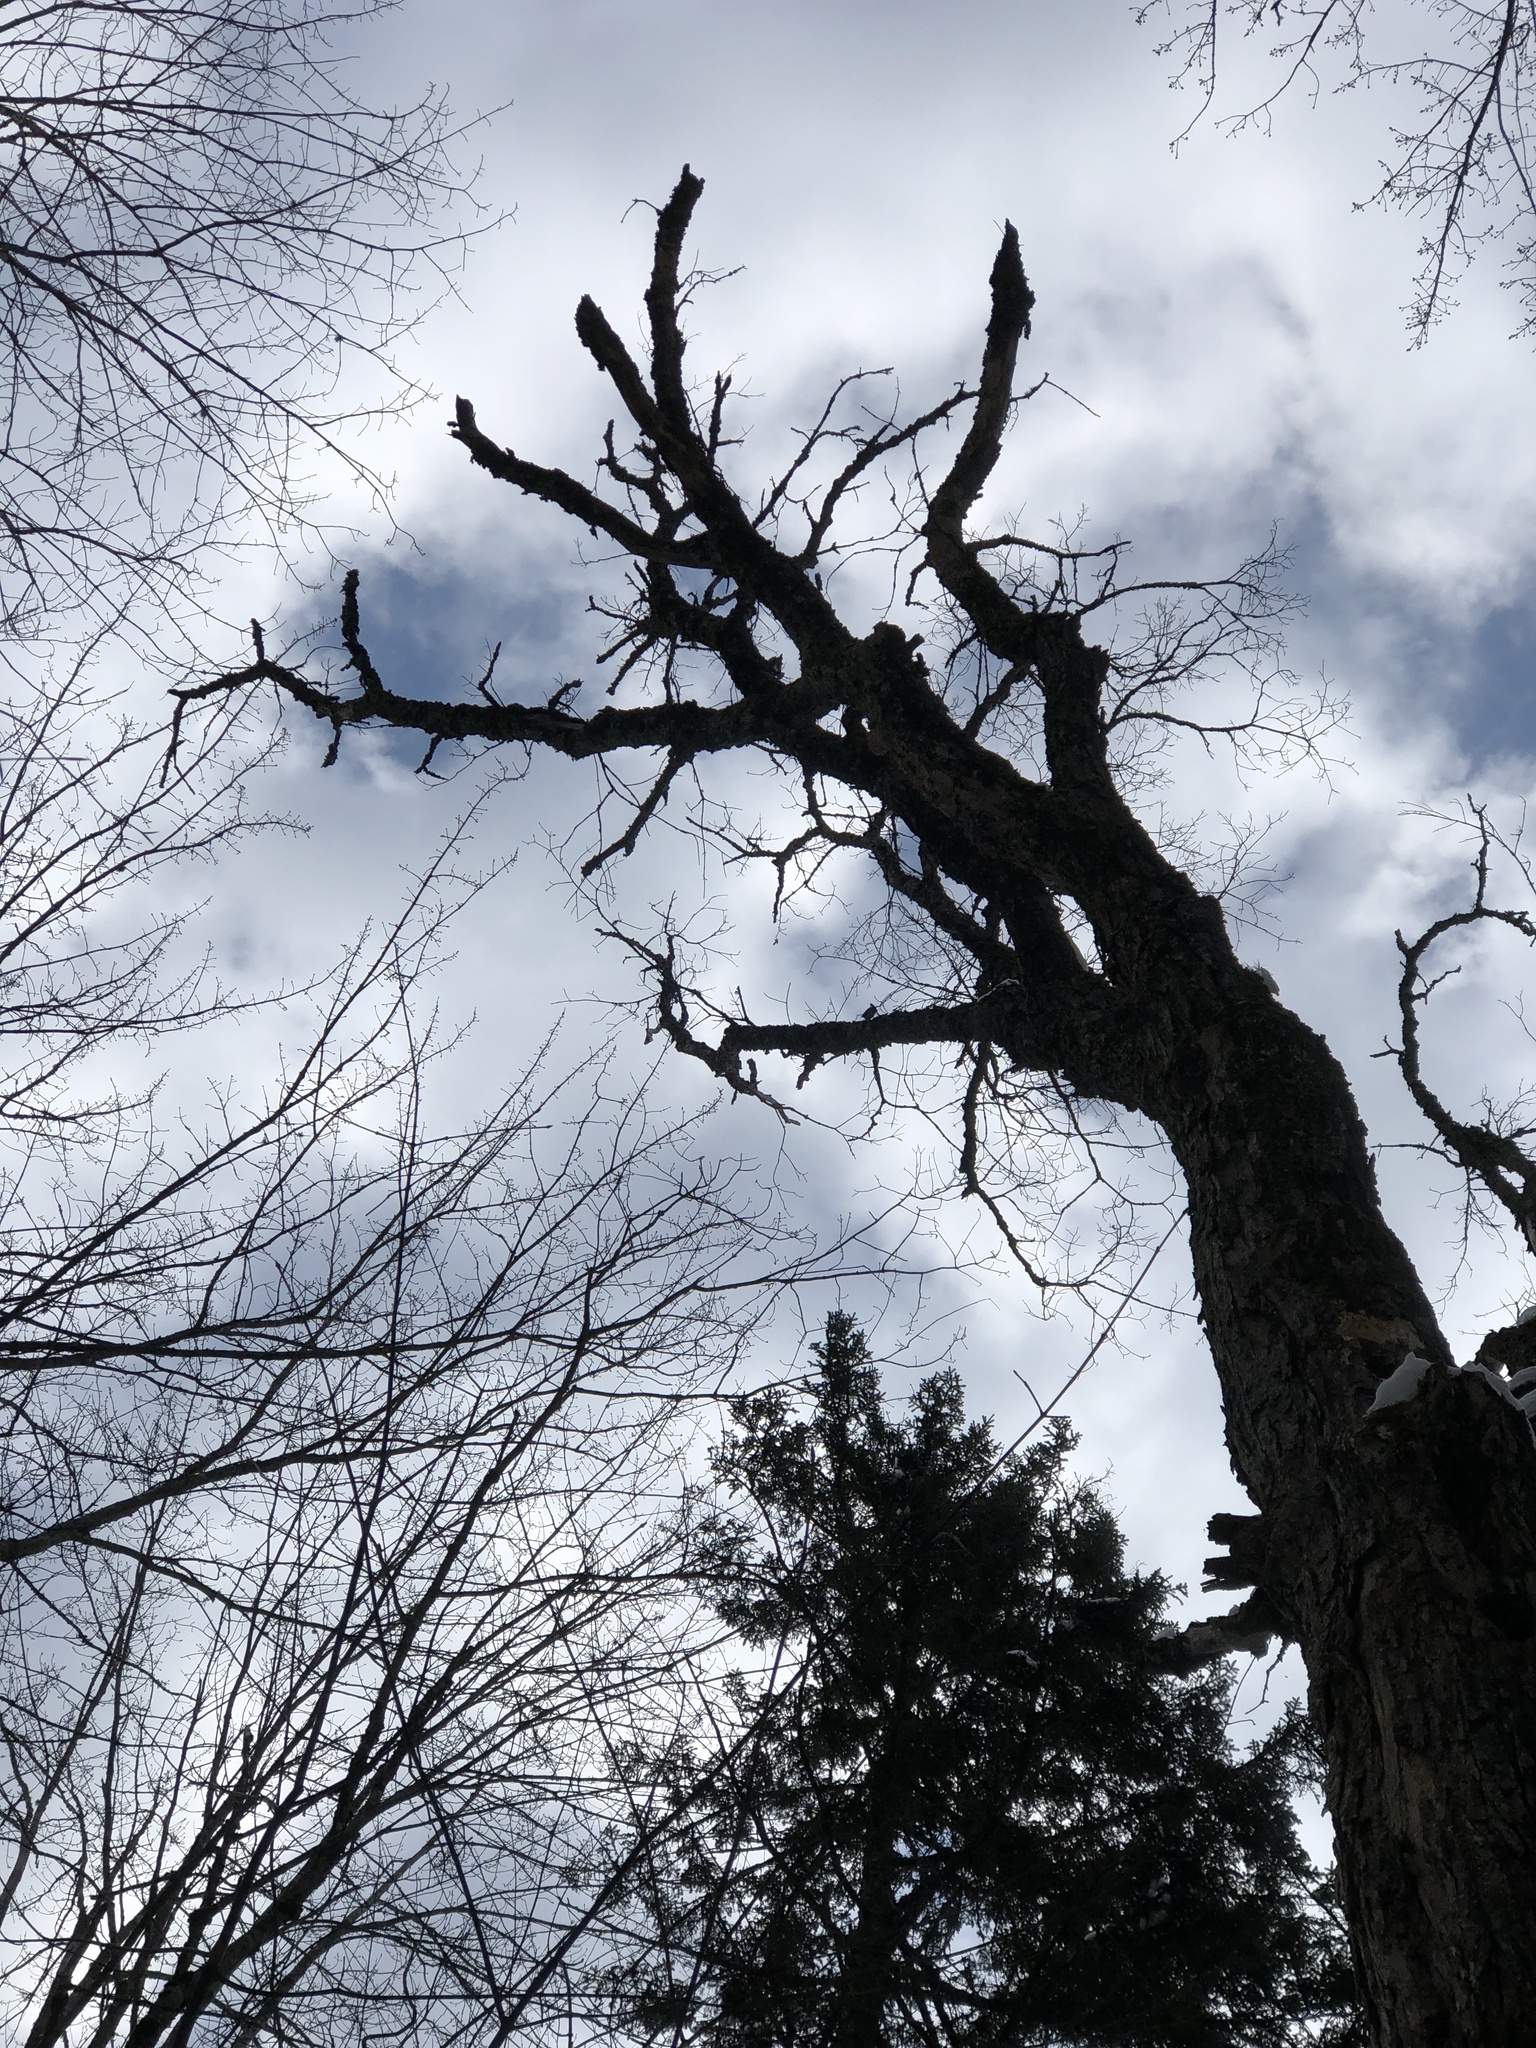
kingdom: Animalia
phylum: Chordata
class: Aves
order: Passeriformes
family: Sittidae
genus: Sitta
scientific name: Sitta canadensis
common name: Red-breasted nuthatch
